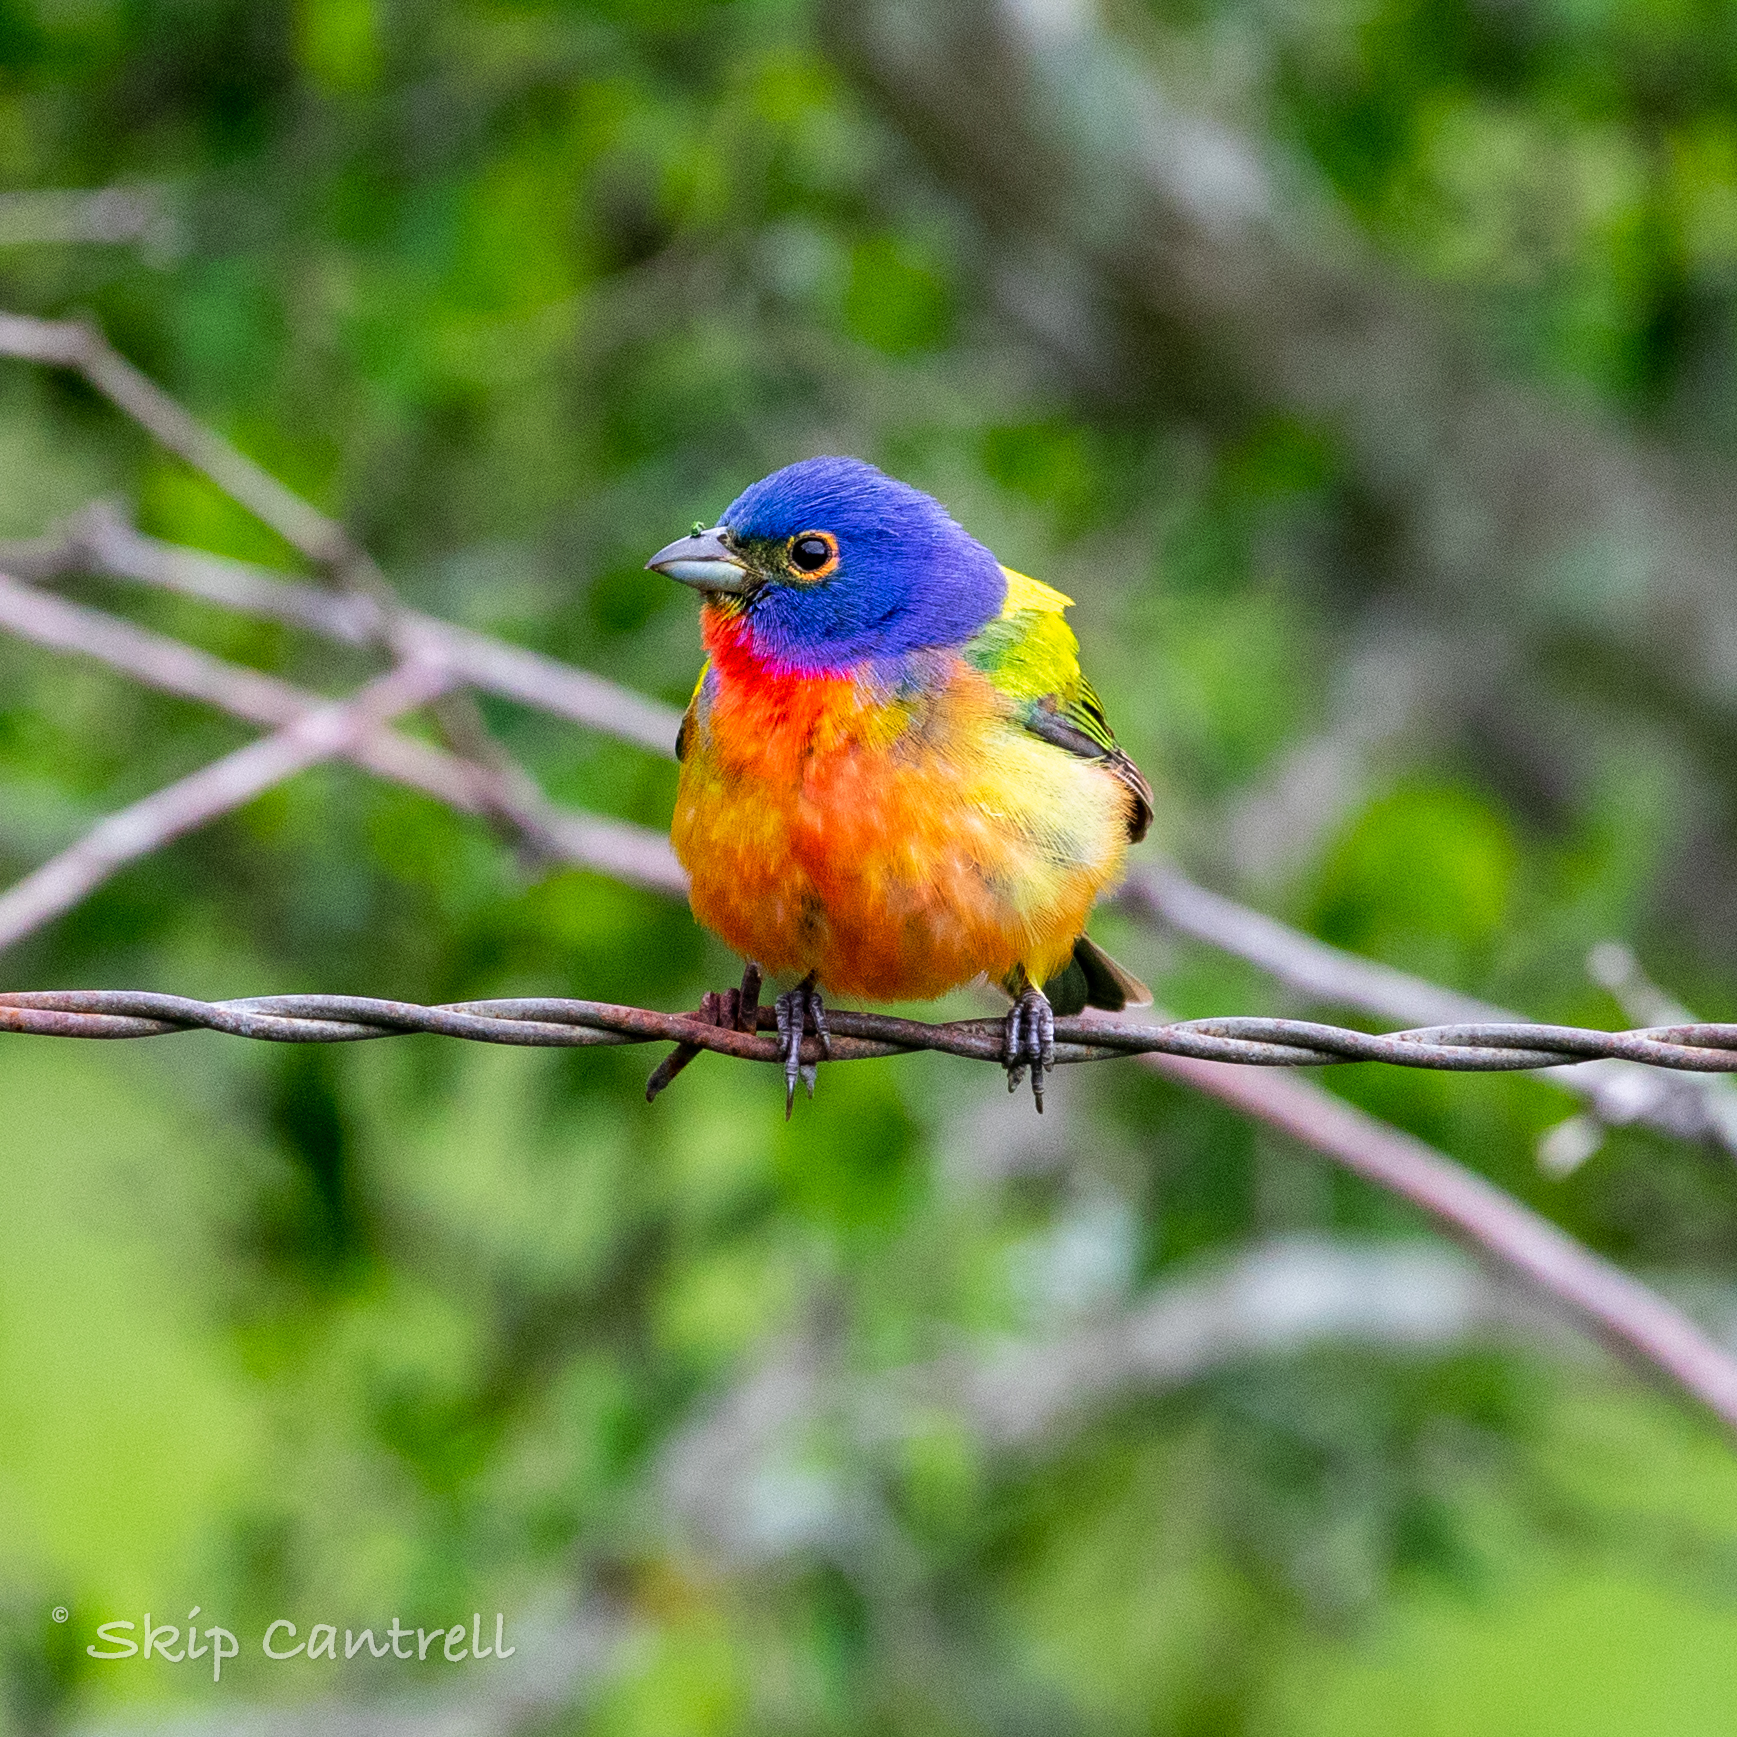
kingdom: Animalia
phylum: Chordata
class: Aves
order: Passeriformes
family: Cardinalidae
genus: Passerina
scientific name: Passerina ciris
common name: Painted bunting
